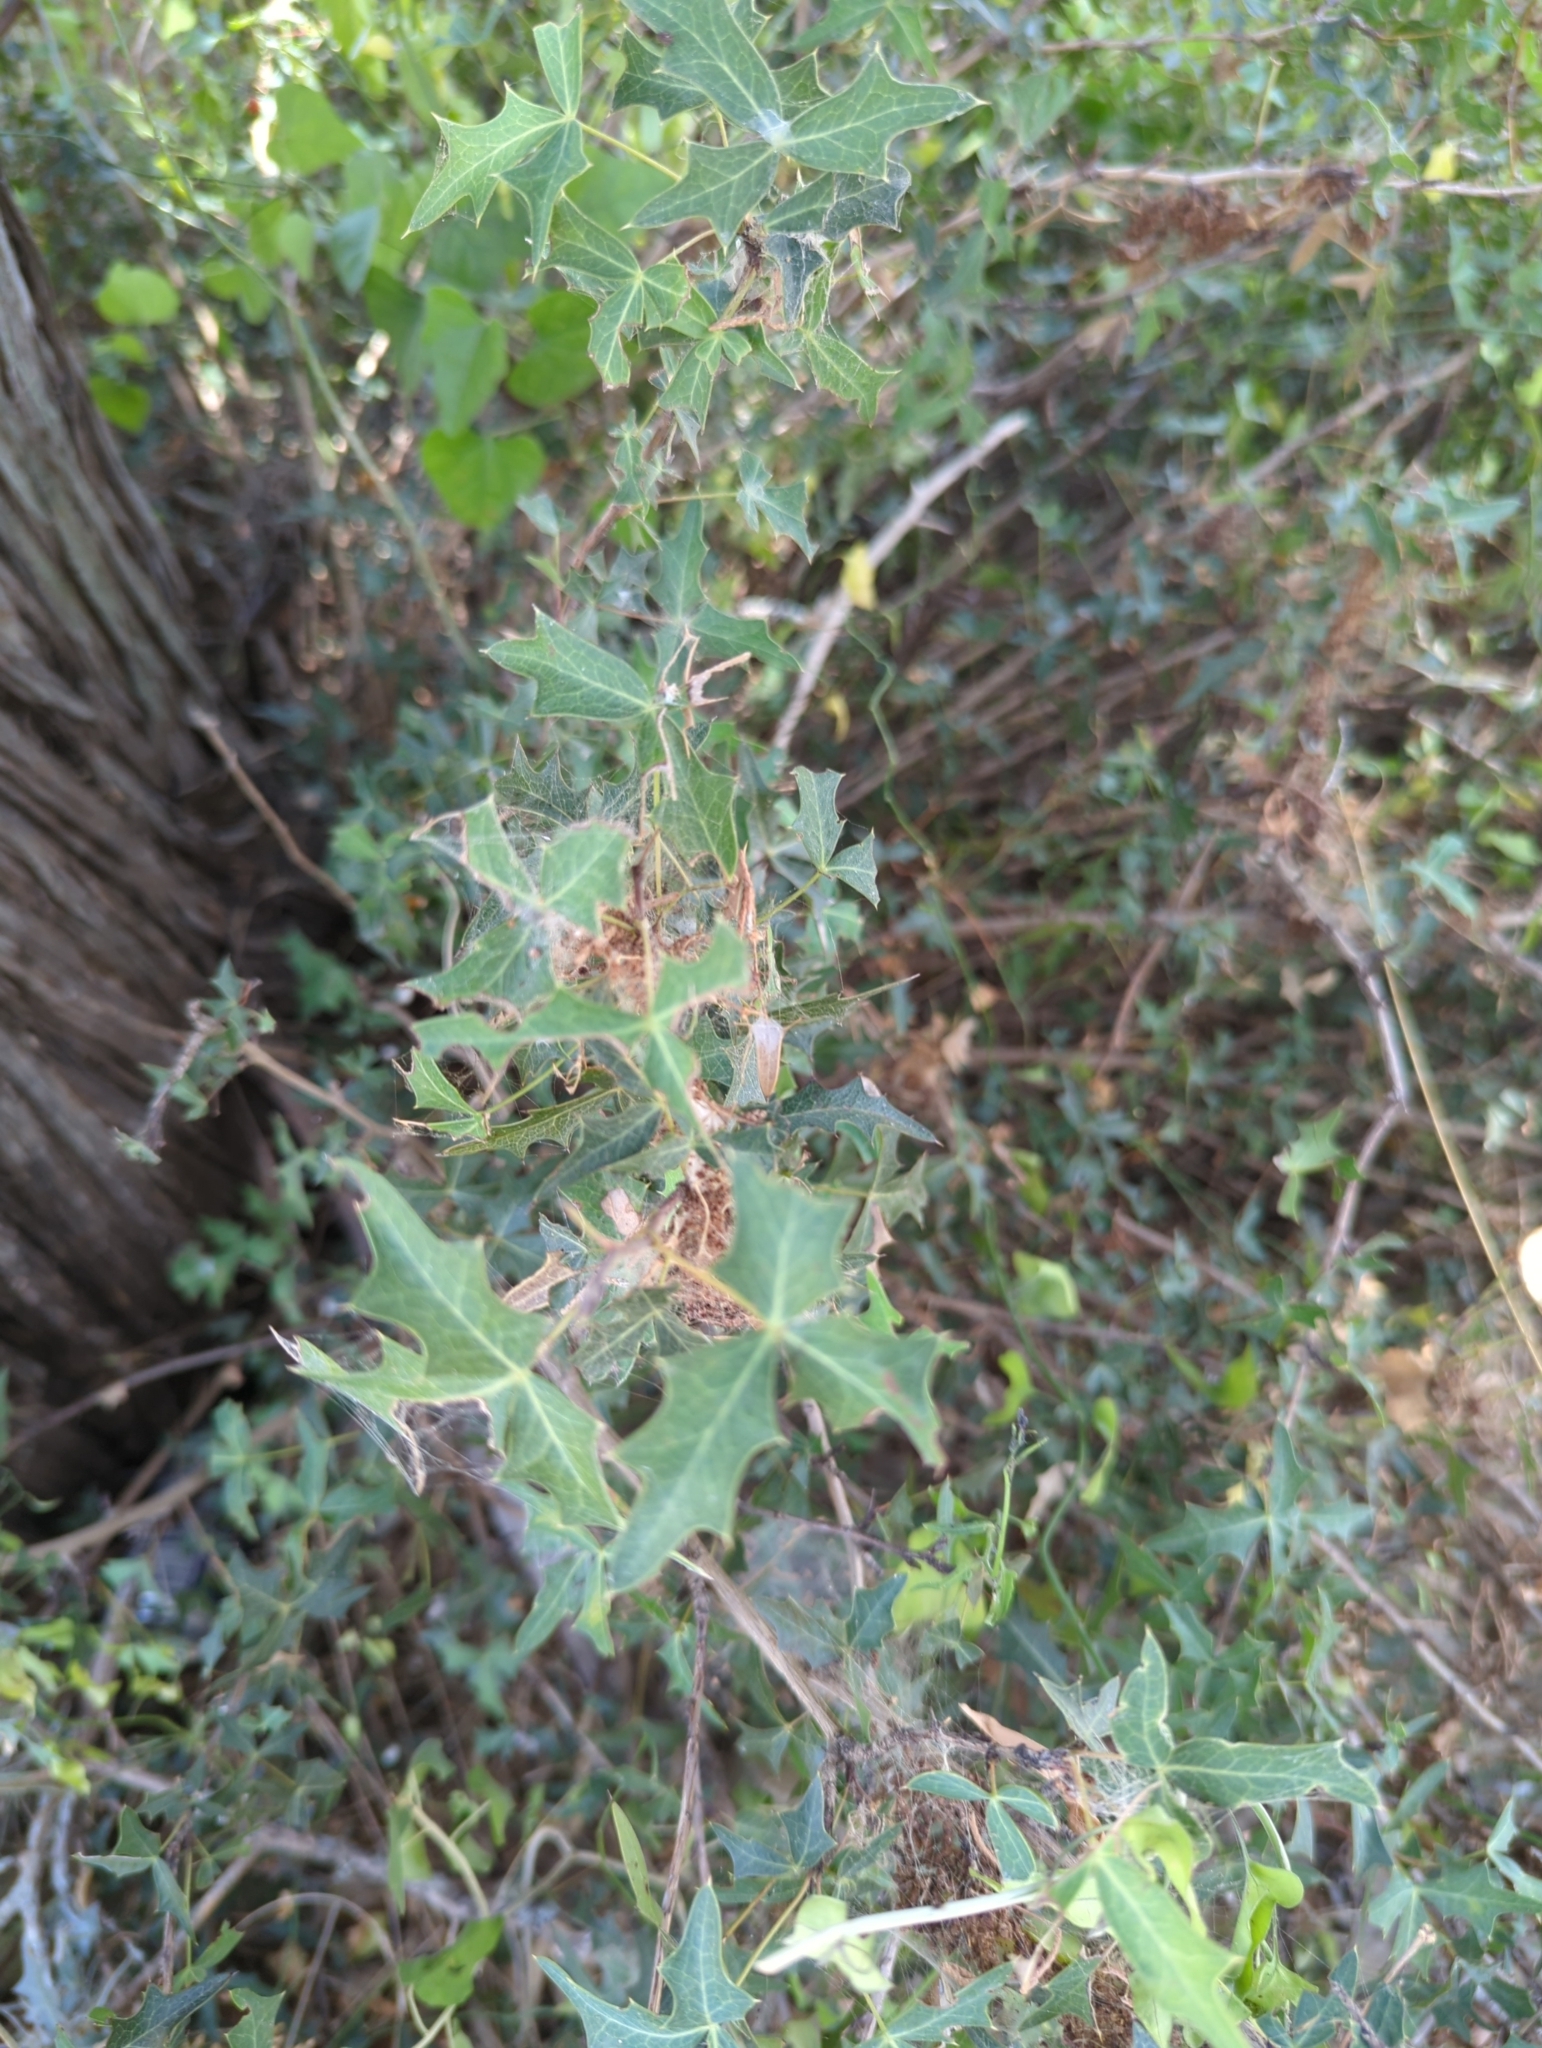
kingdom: Plantae
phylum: Tracheophyta
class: Magnoliopsida
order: Ranunculales
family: Berberidaceae
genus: Alloberberis
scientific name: Alloberberis trifoliolata
